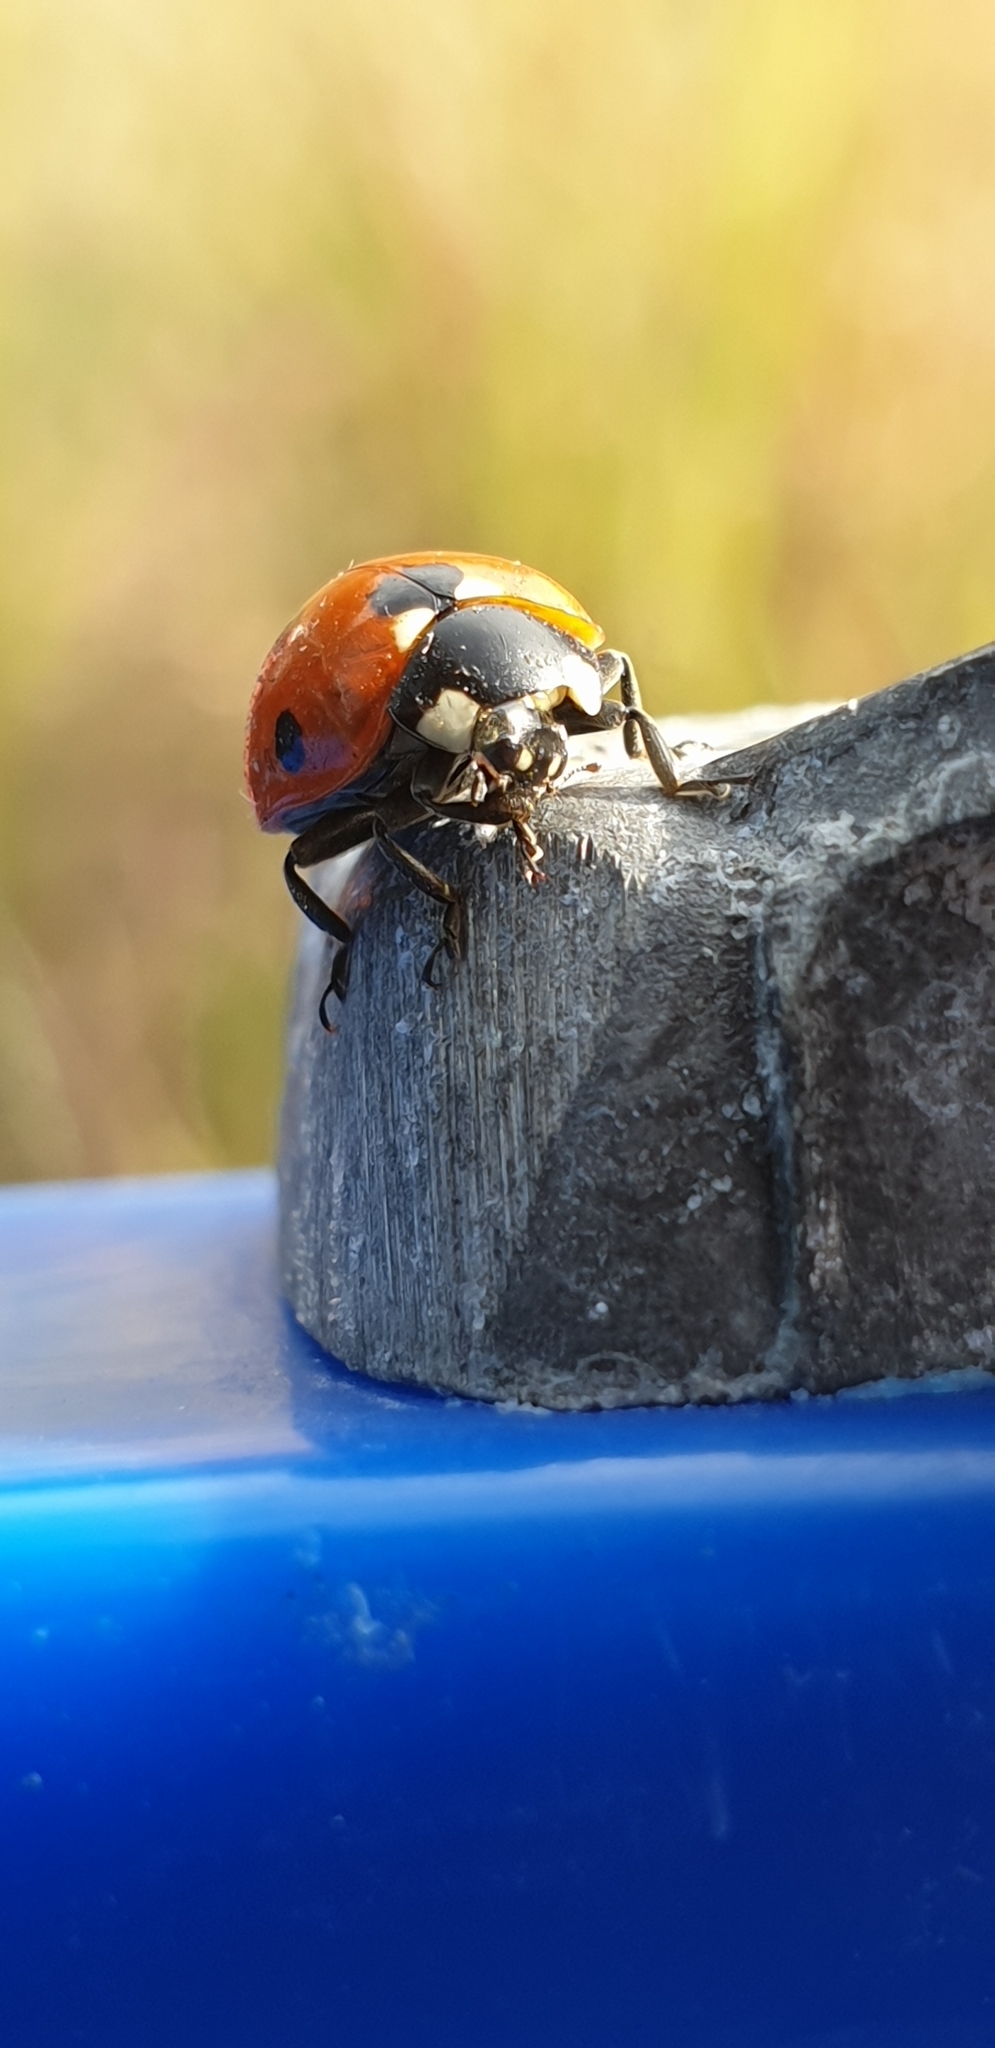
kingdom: Animalia
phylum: Arthropoda
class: Insecta
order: Coleoptera
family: Coccinellidae
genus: Coccinella
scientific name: Coccinella septempunctata
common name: Sevenspotted lady beetle
